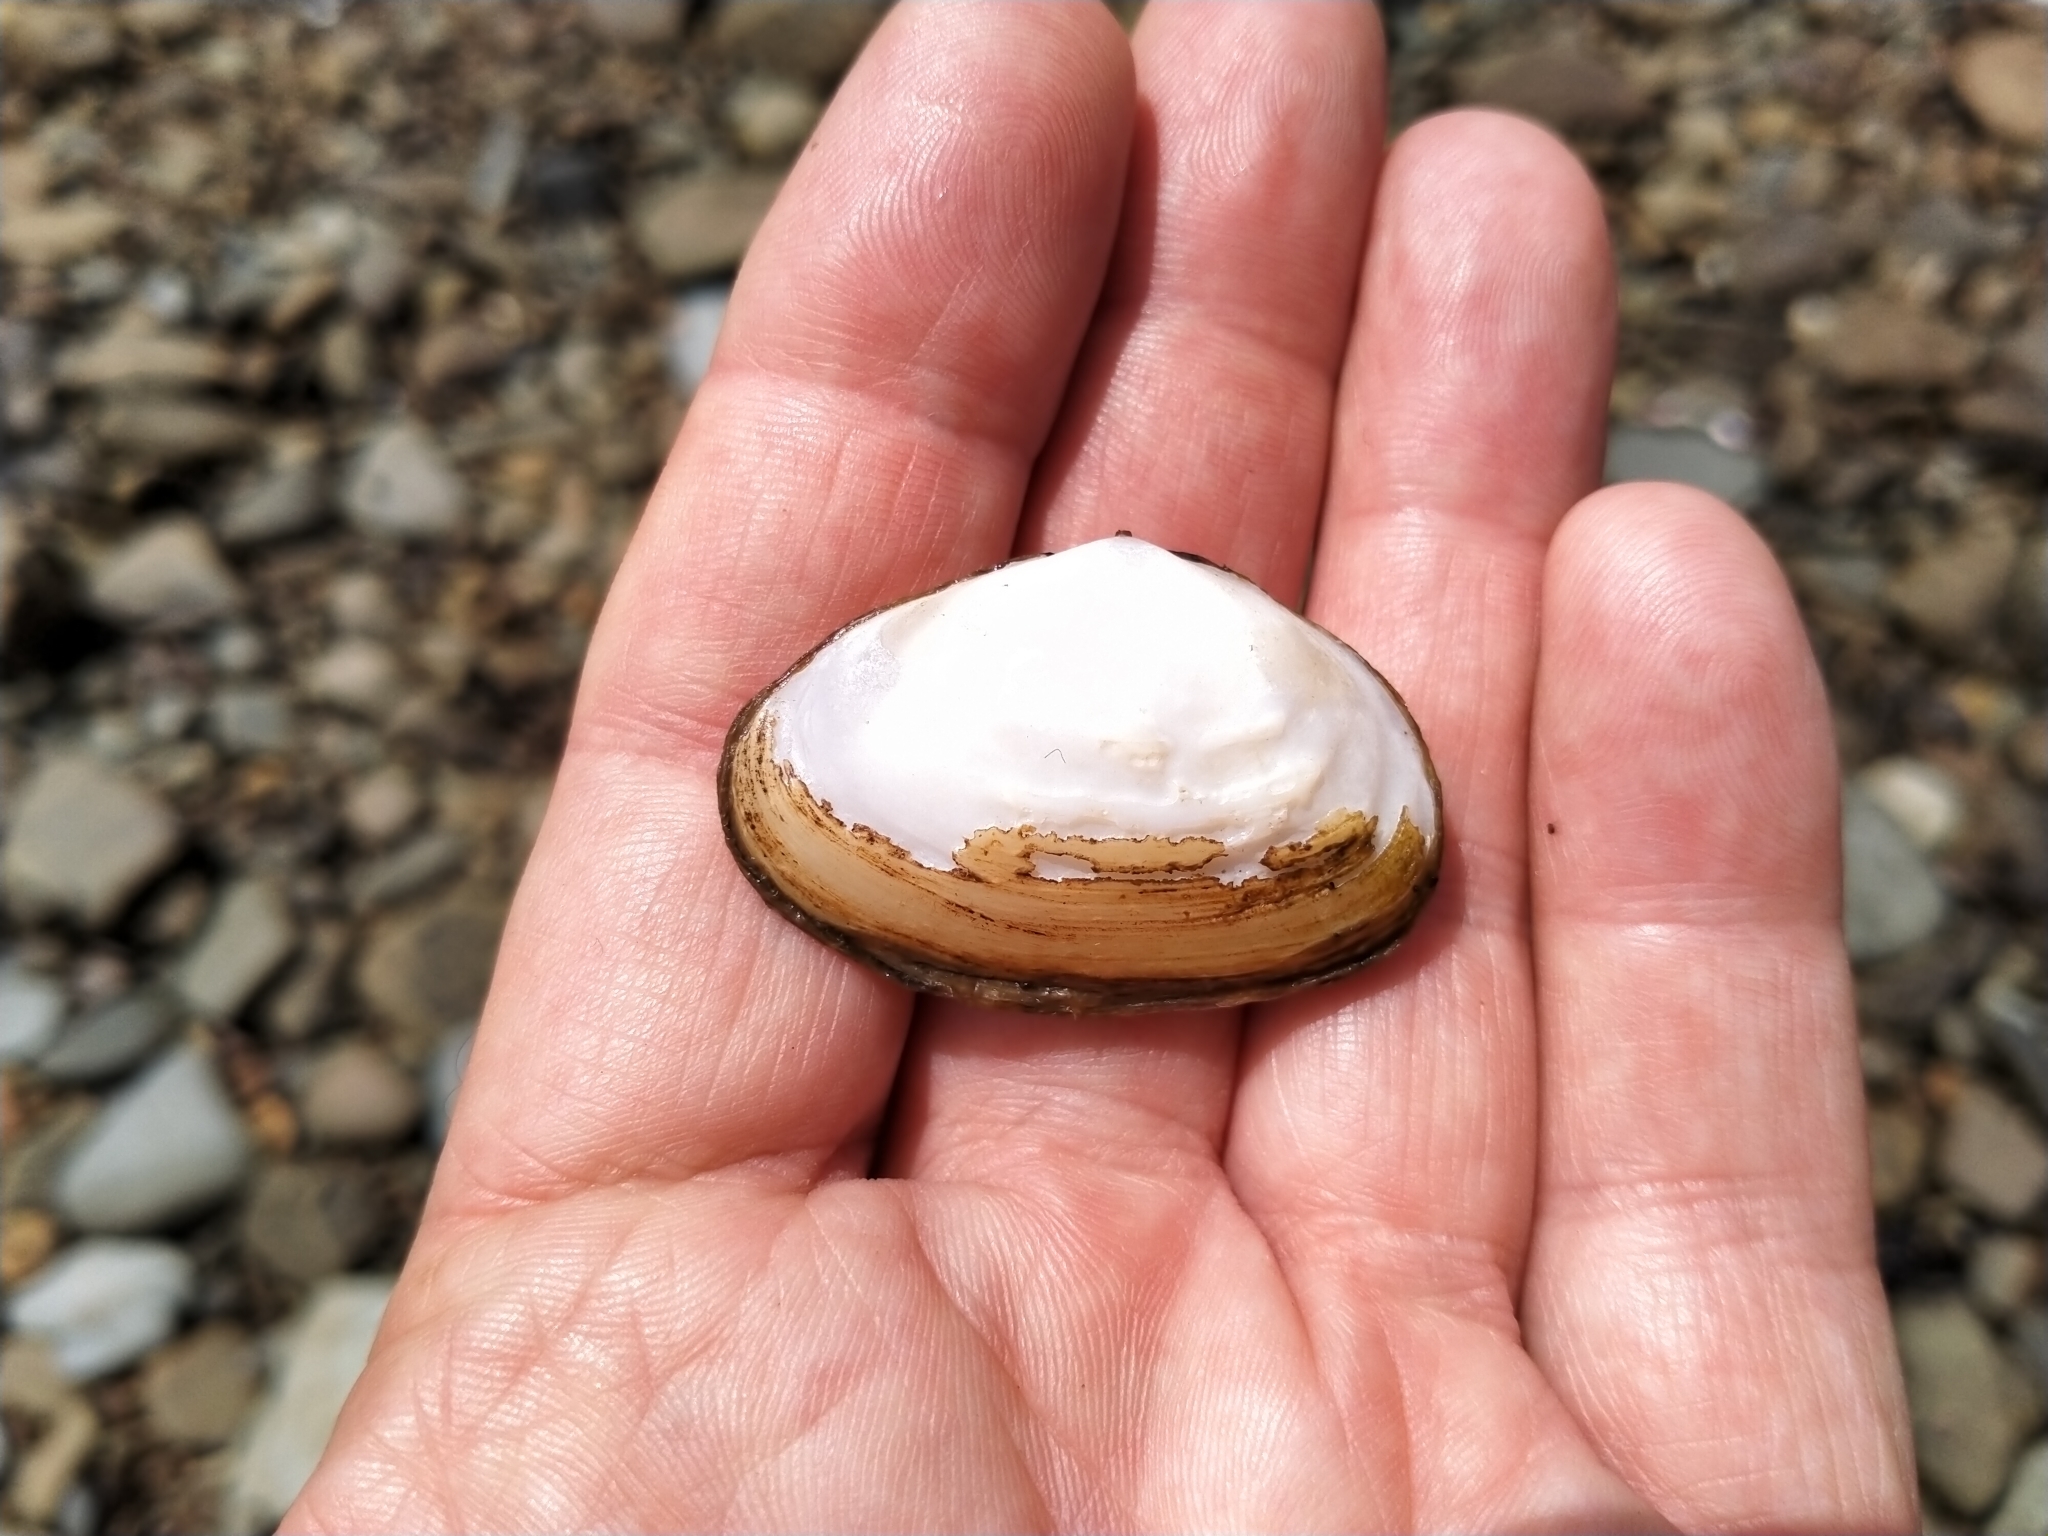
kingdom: Animalia
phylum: Mollusca
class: Bivalvia
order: Venerida
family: Mesodesmatidae
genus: Paphies
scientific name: Paphies australis
